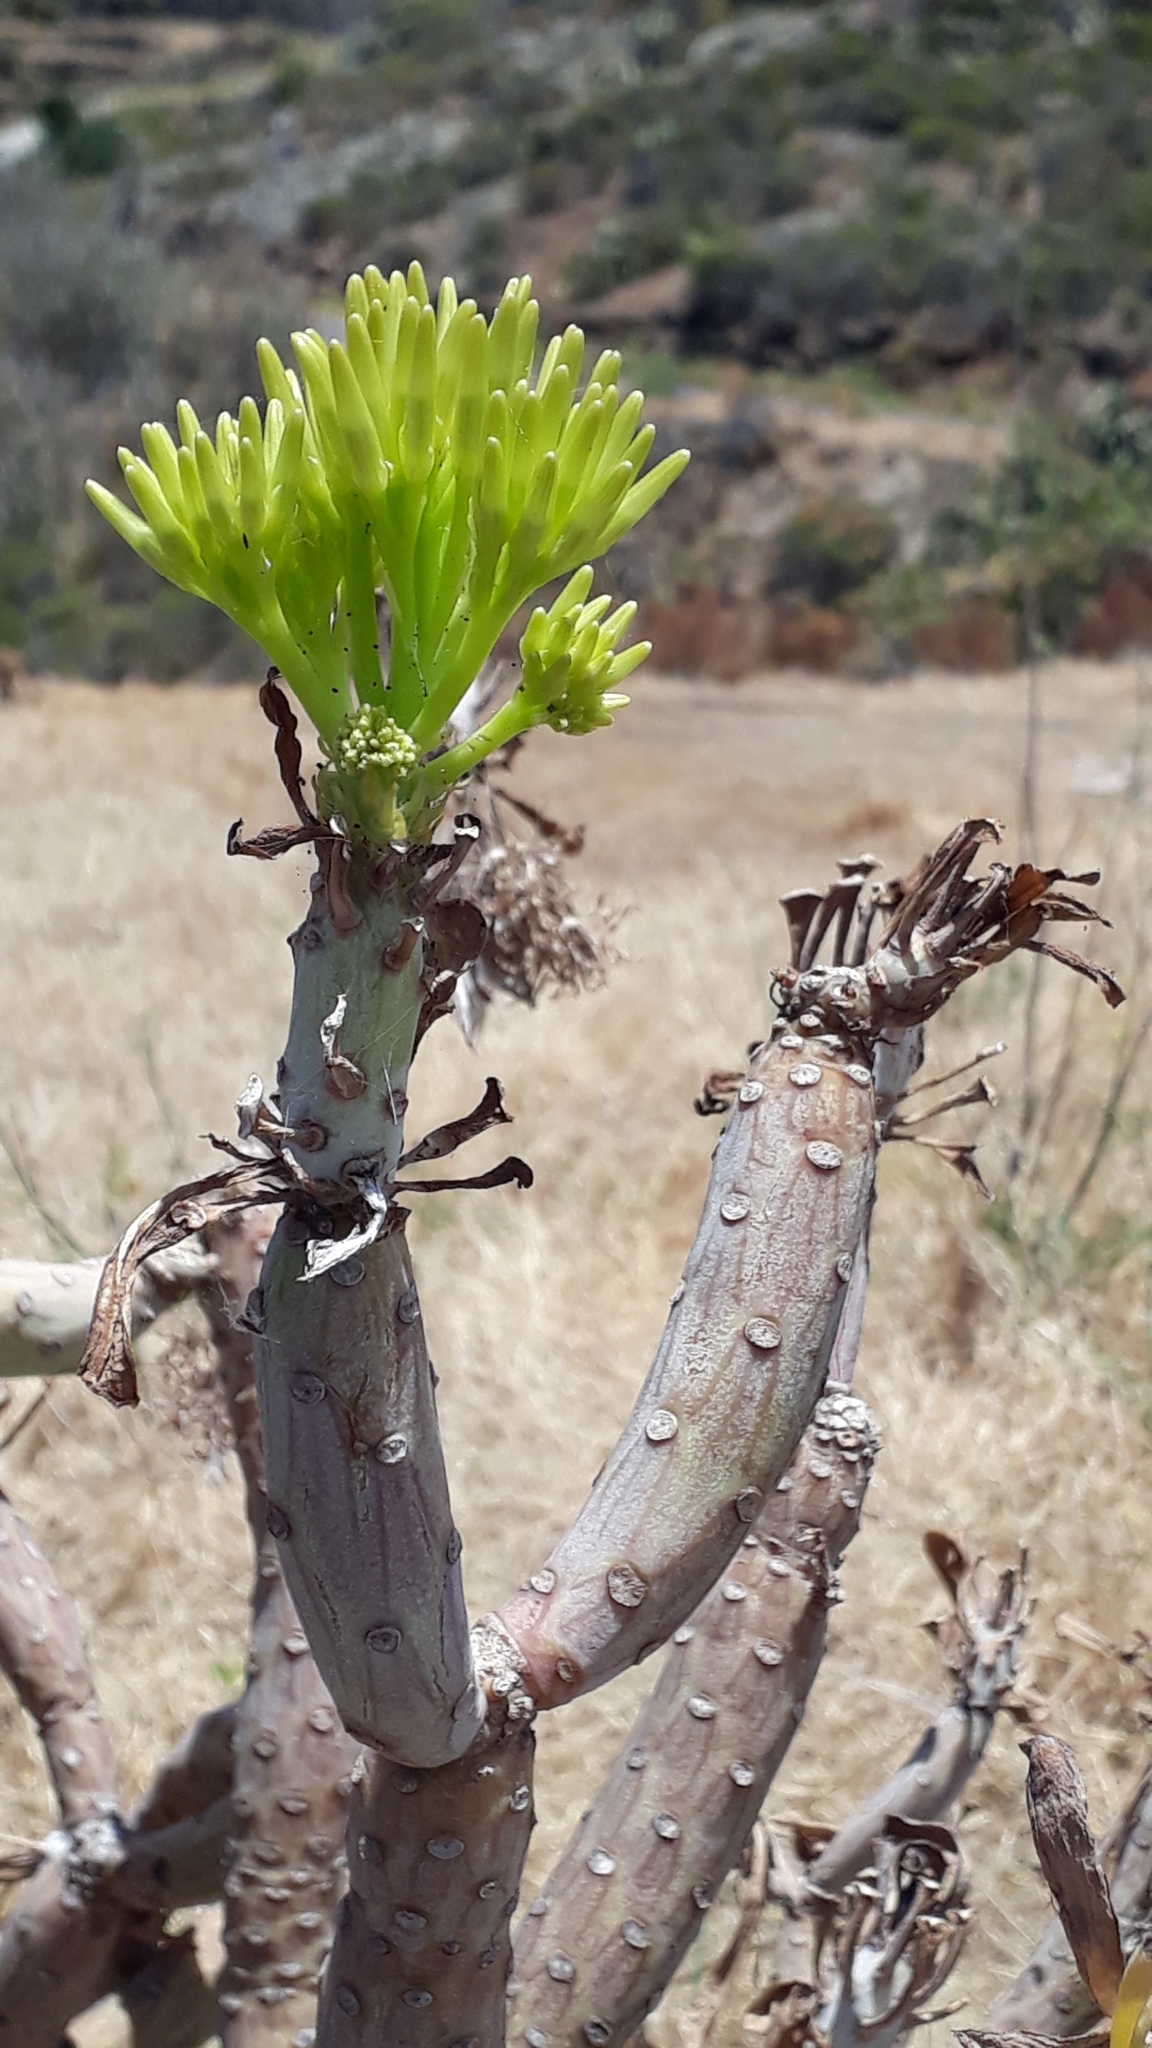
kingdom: Plantae
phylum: Tracheophyta
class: Magnoliopsida
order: Asterales
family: Asteraceae
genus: Kleinia
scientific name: Kleinia neriifolia
